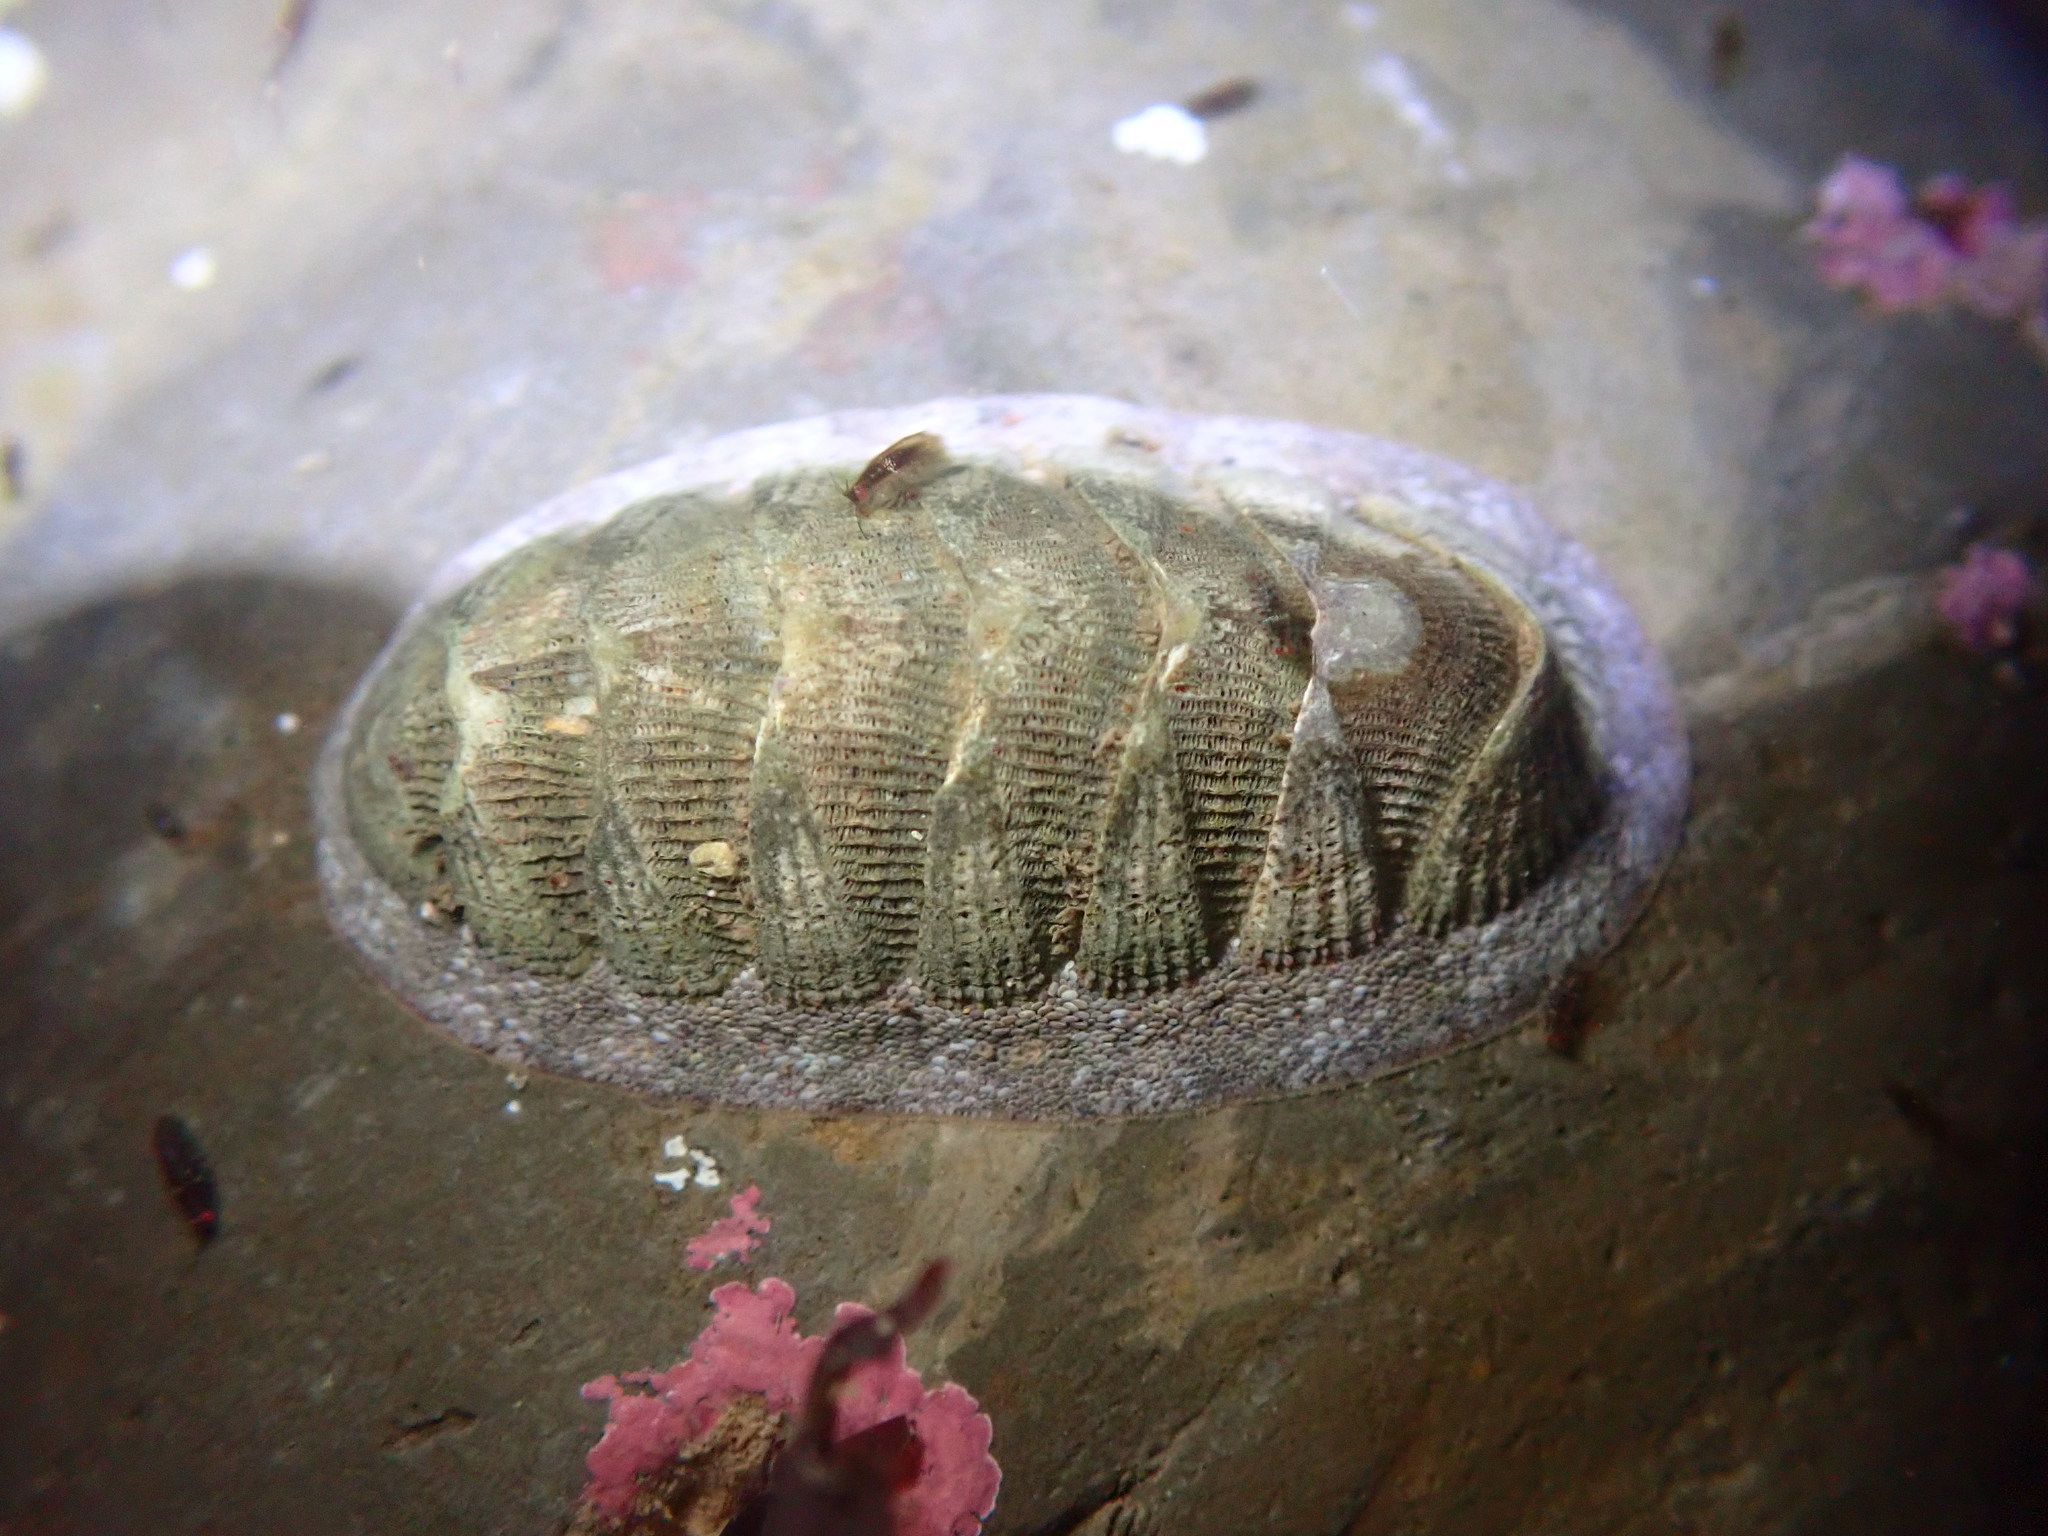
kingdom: Animalia
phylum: Mollusca
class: Polyplacophora
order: Chitonida
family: Ischnochitonidae
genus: Lepidozona
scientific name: Lepidozona cooperi
